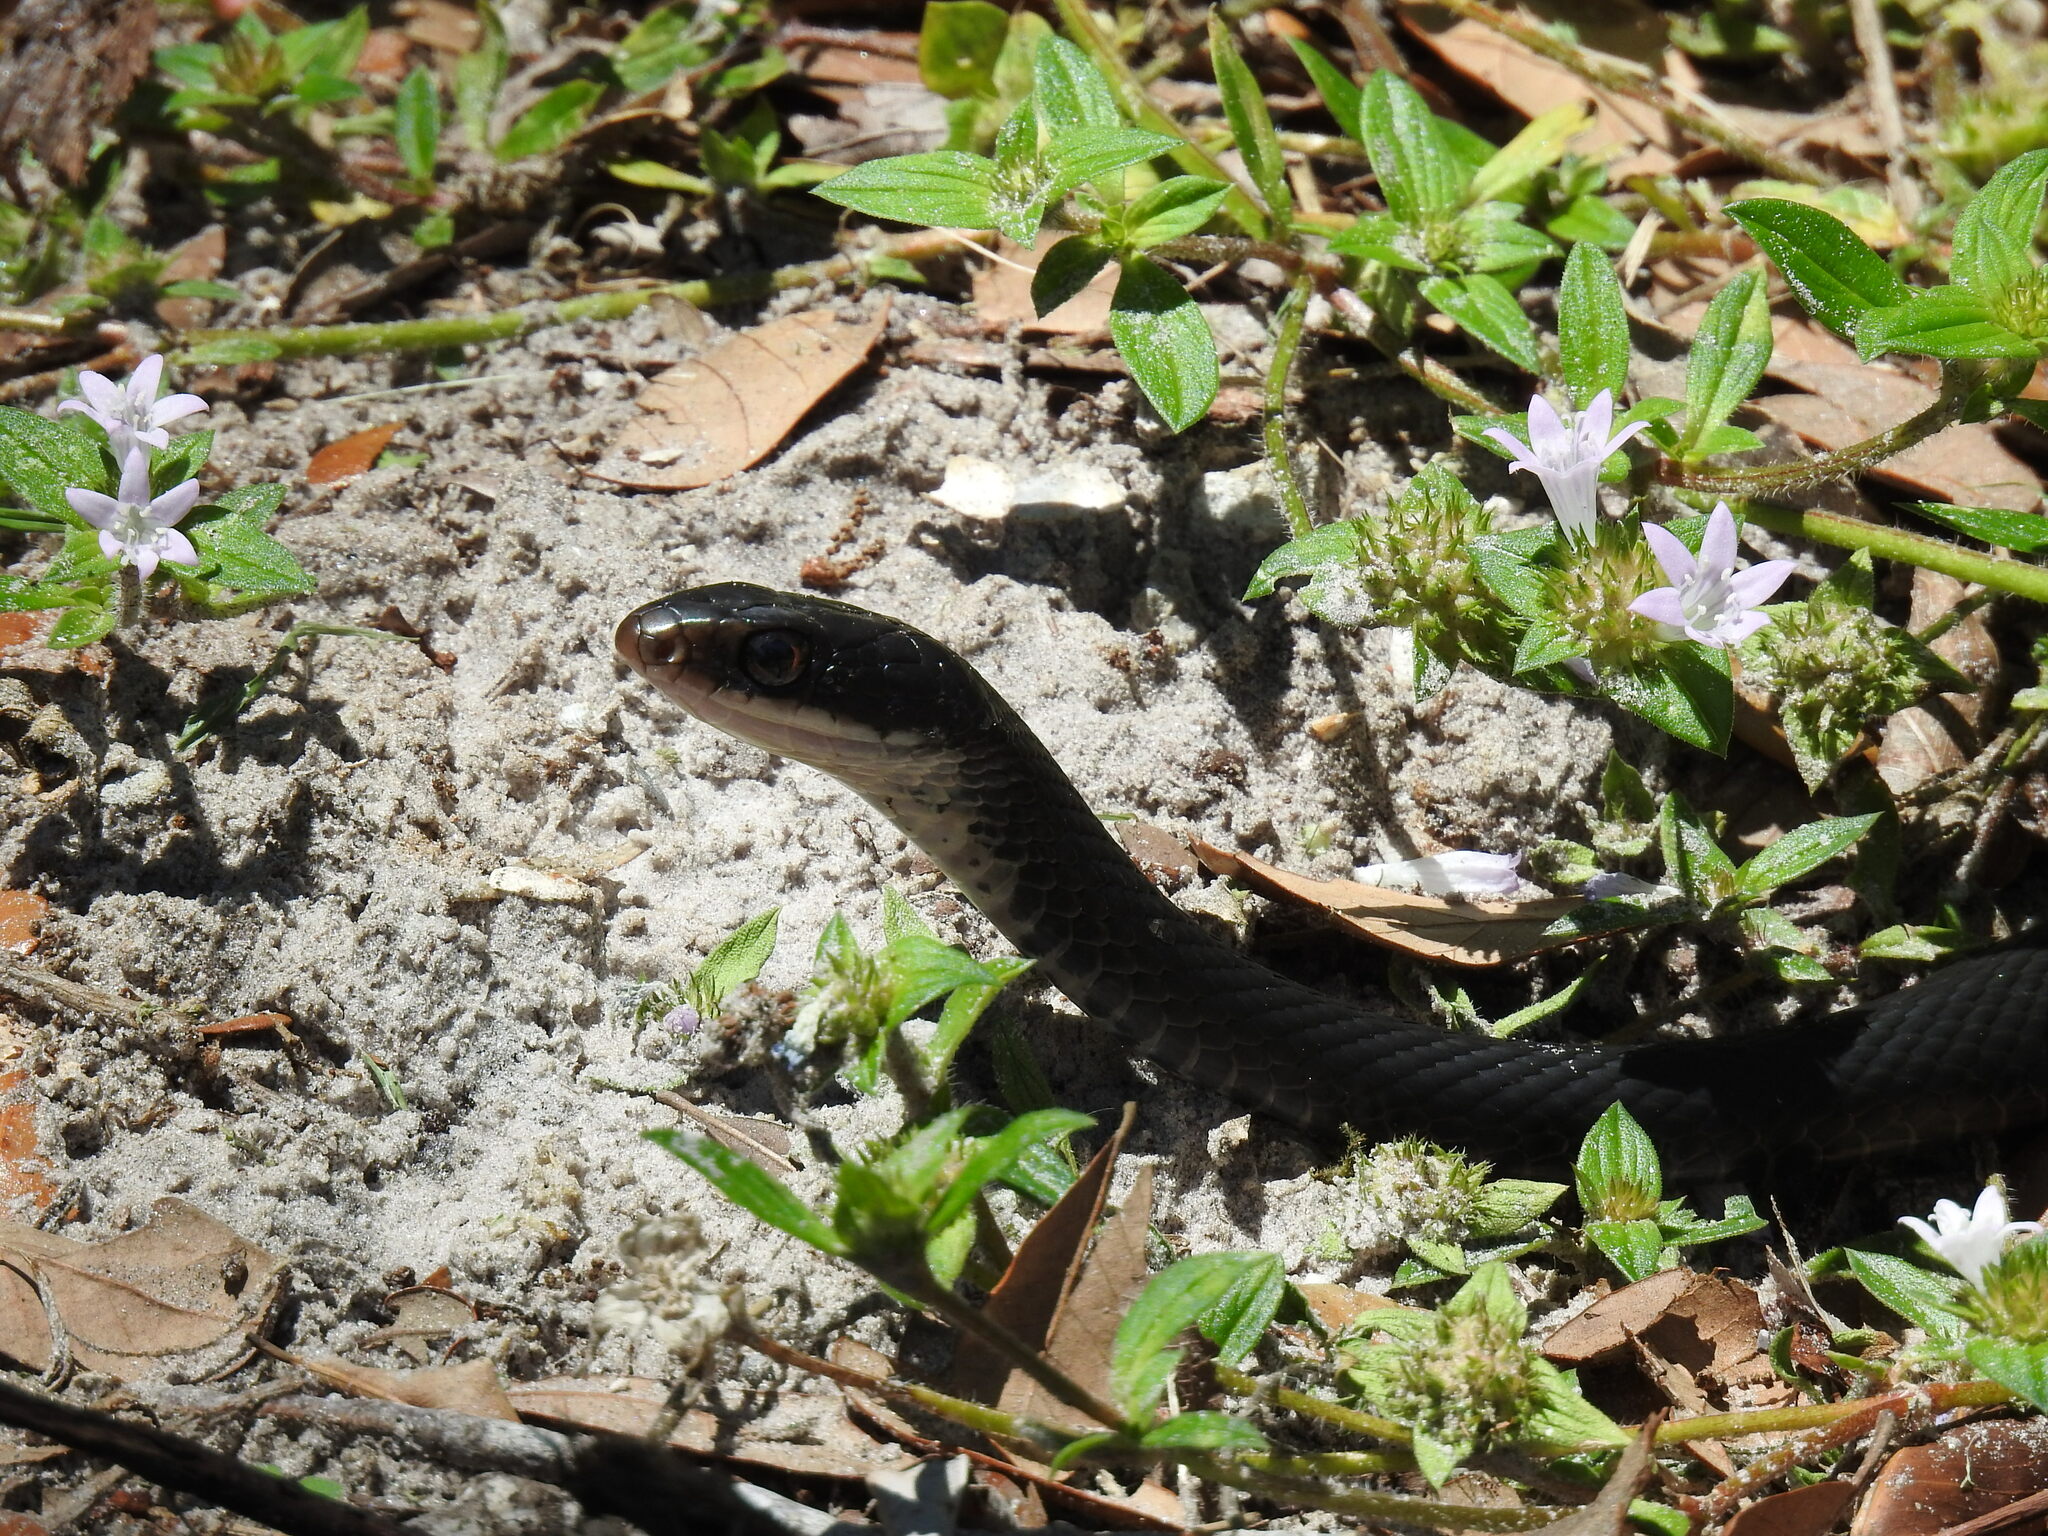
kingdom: Animalia
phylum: Chordata
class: Squamata
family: Colubridae
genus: Coluber
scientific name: Coluber constrictor
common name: Eastern racer
